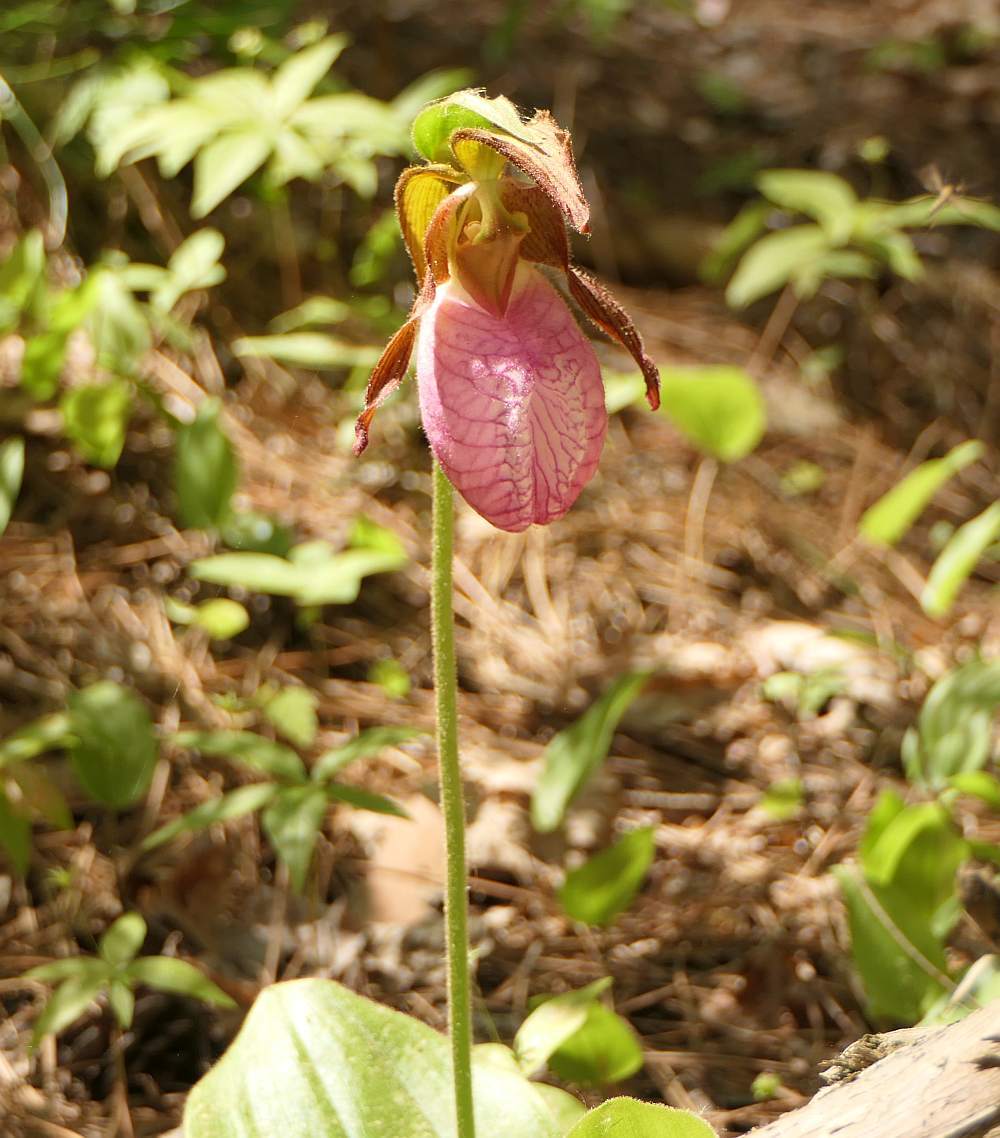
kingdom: Plantae
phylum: Tracheophyta
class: Liliopsida
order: Asparagales
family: Orchidaceae
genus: Cypripedium
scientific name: Cypripedium acaule
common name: Pink lady's-slipper
